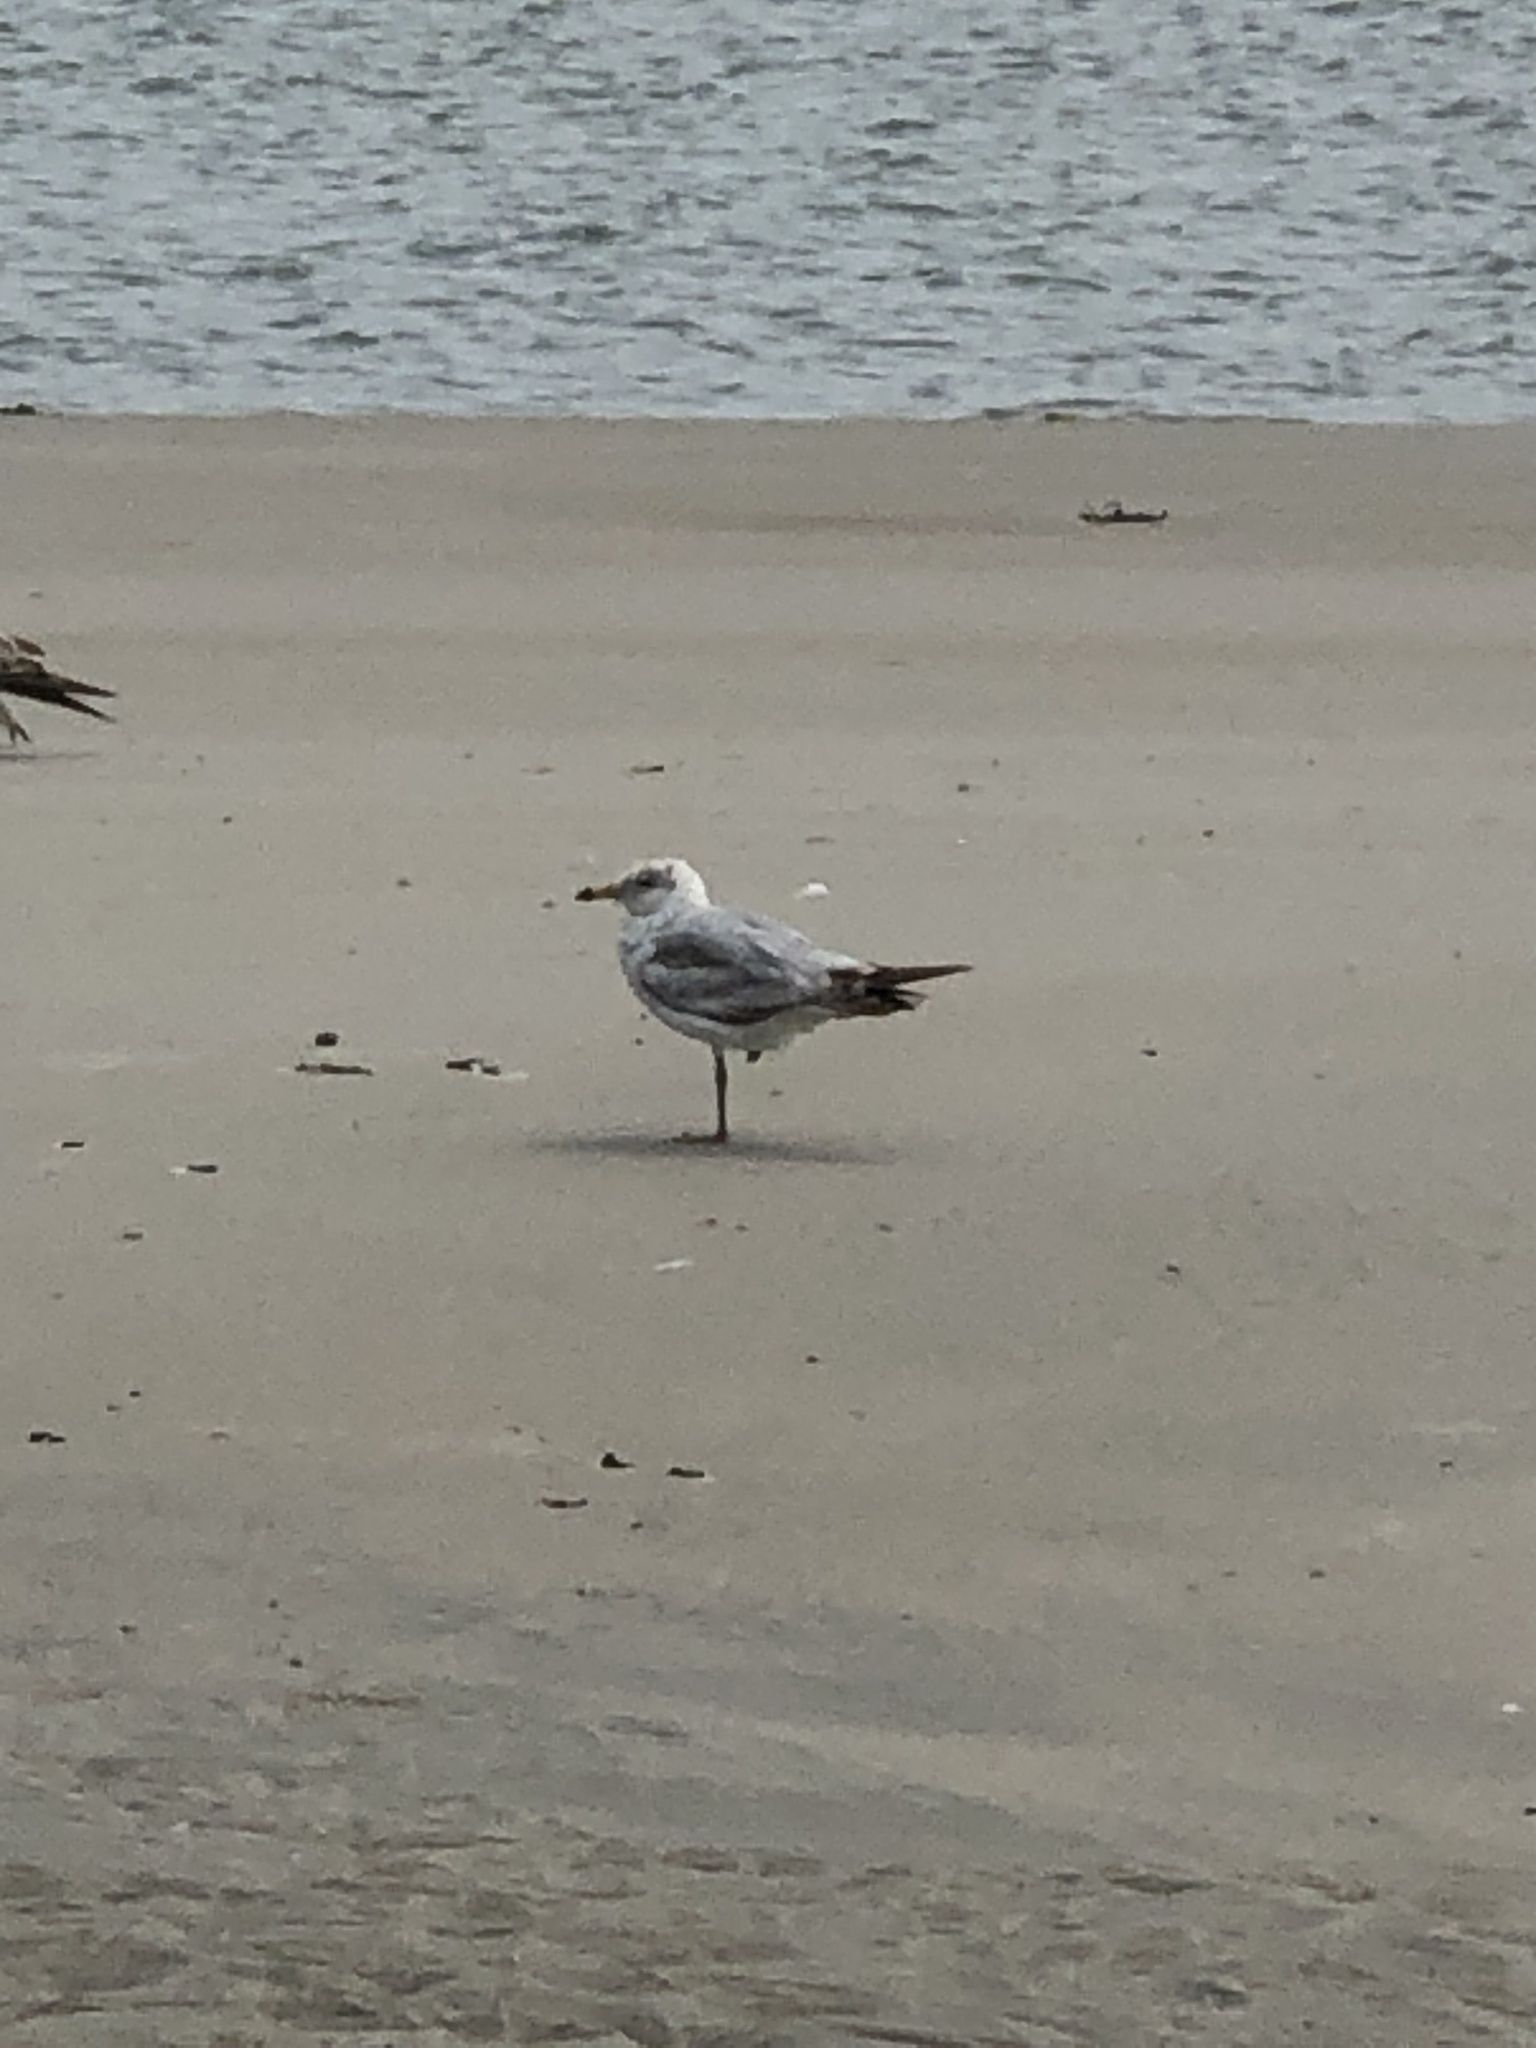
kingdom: Animalia
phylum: Chordata
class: Aves
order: Charadriiformes
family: Laridae
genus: Larus
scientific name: Larus delawarensis
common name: Ring-billed gull
